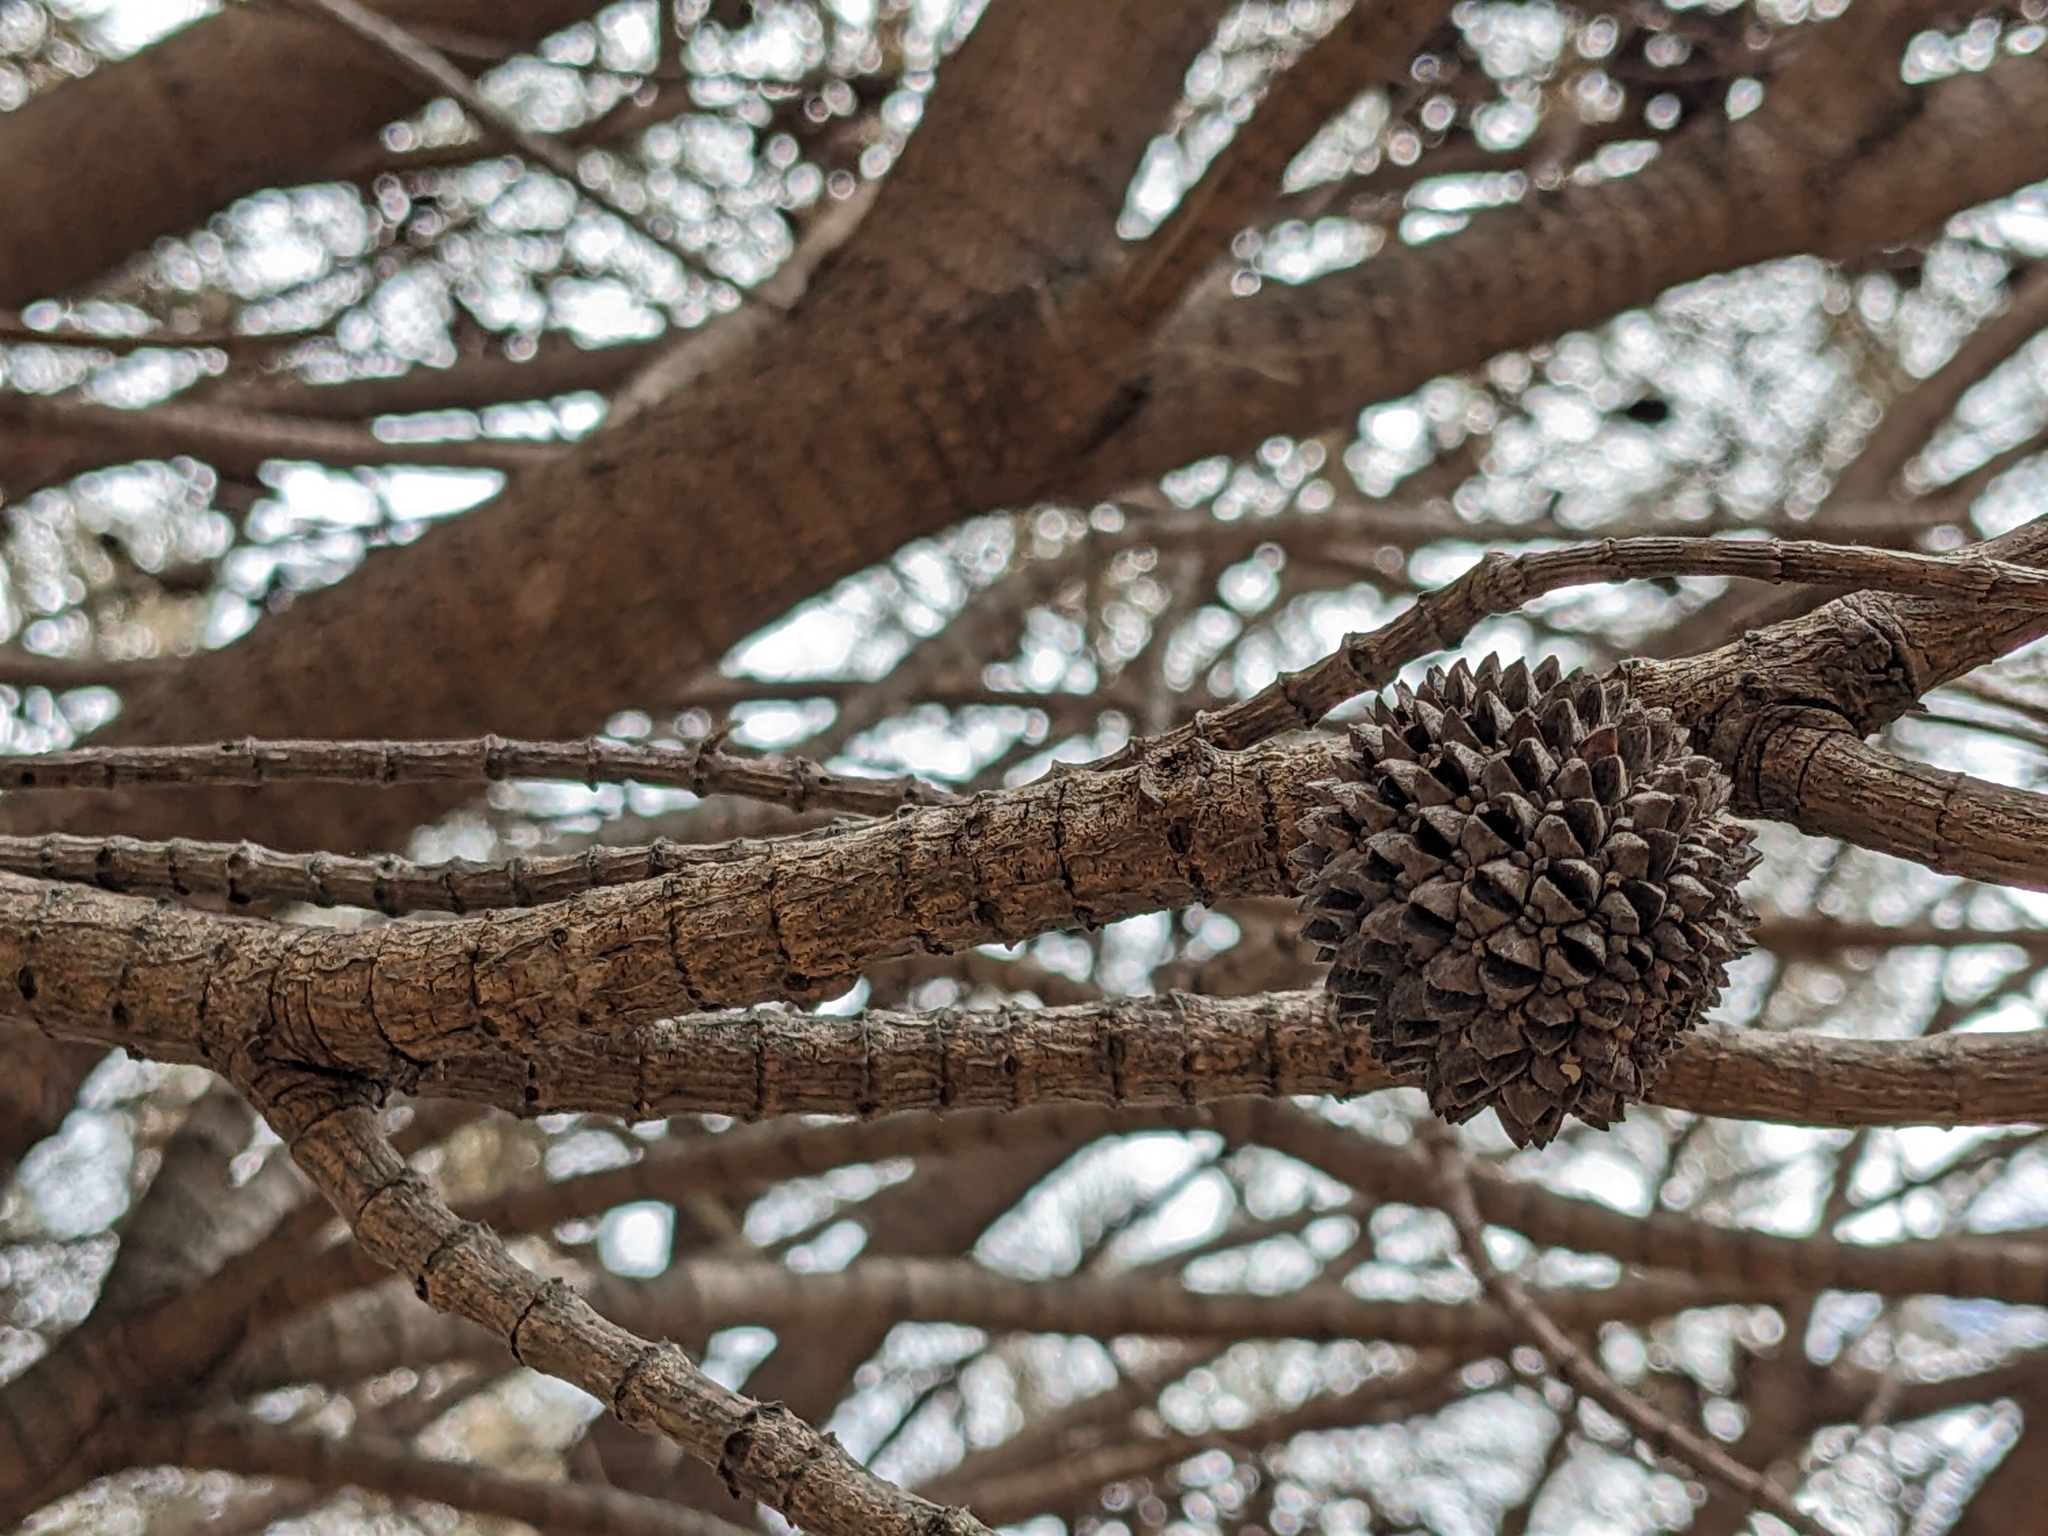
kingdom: Plantae
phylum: Tracheophyta
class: Magnoliopsida
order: Fagales
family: Casuarinaceae
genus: Allocasuarina
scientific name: Allocasuarina verticillata
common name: Drooping she-oak
